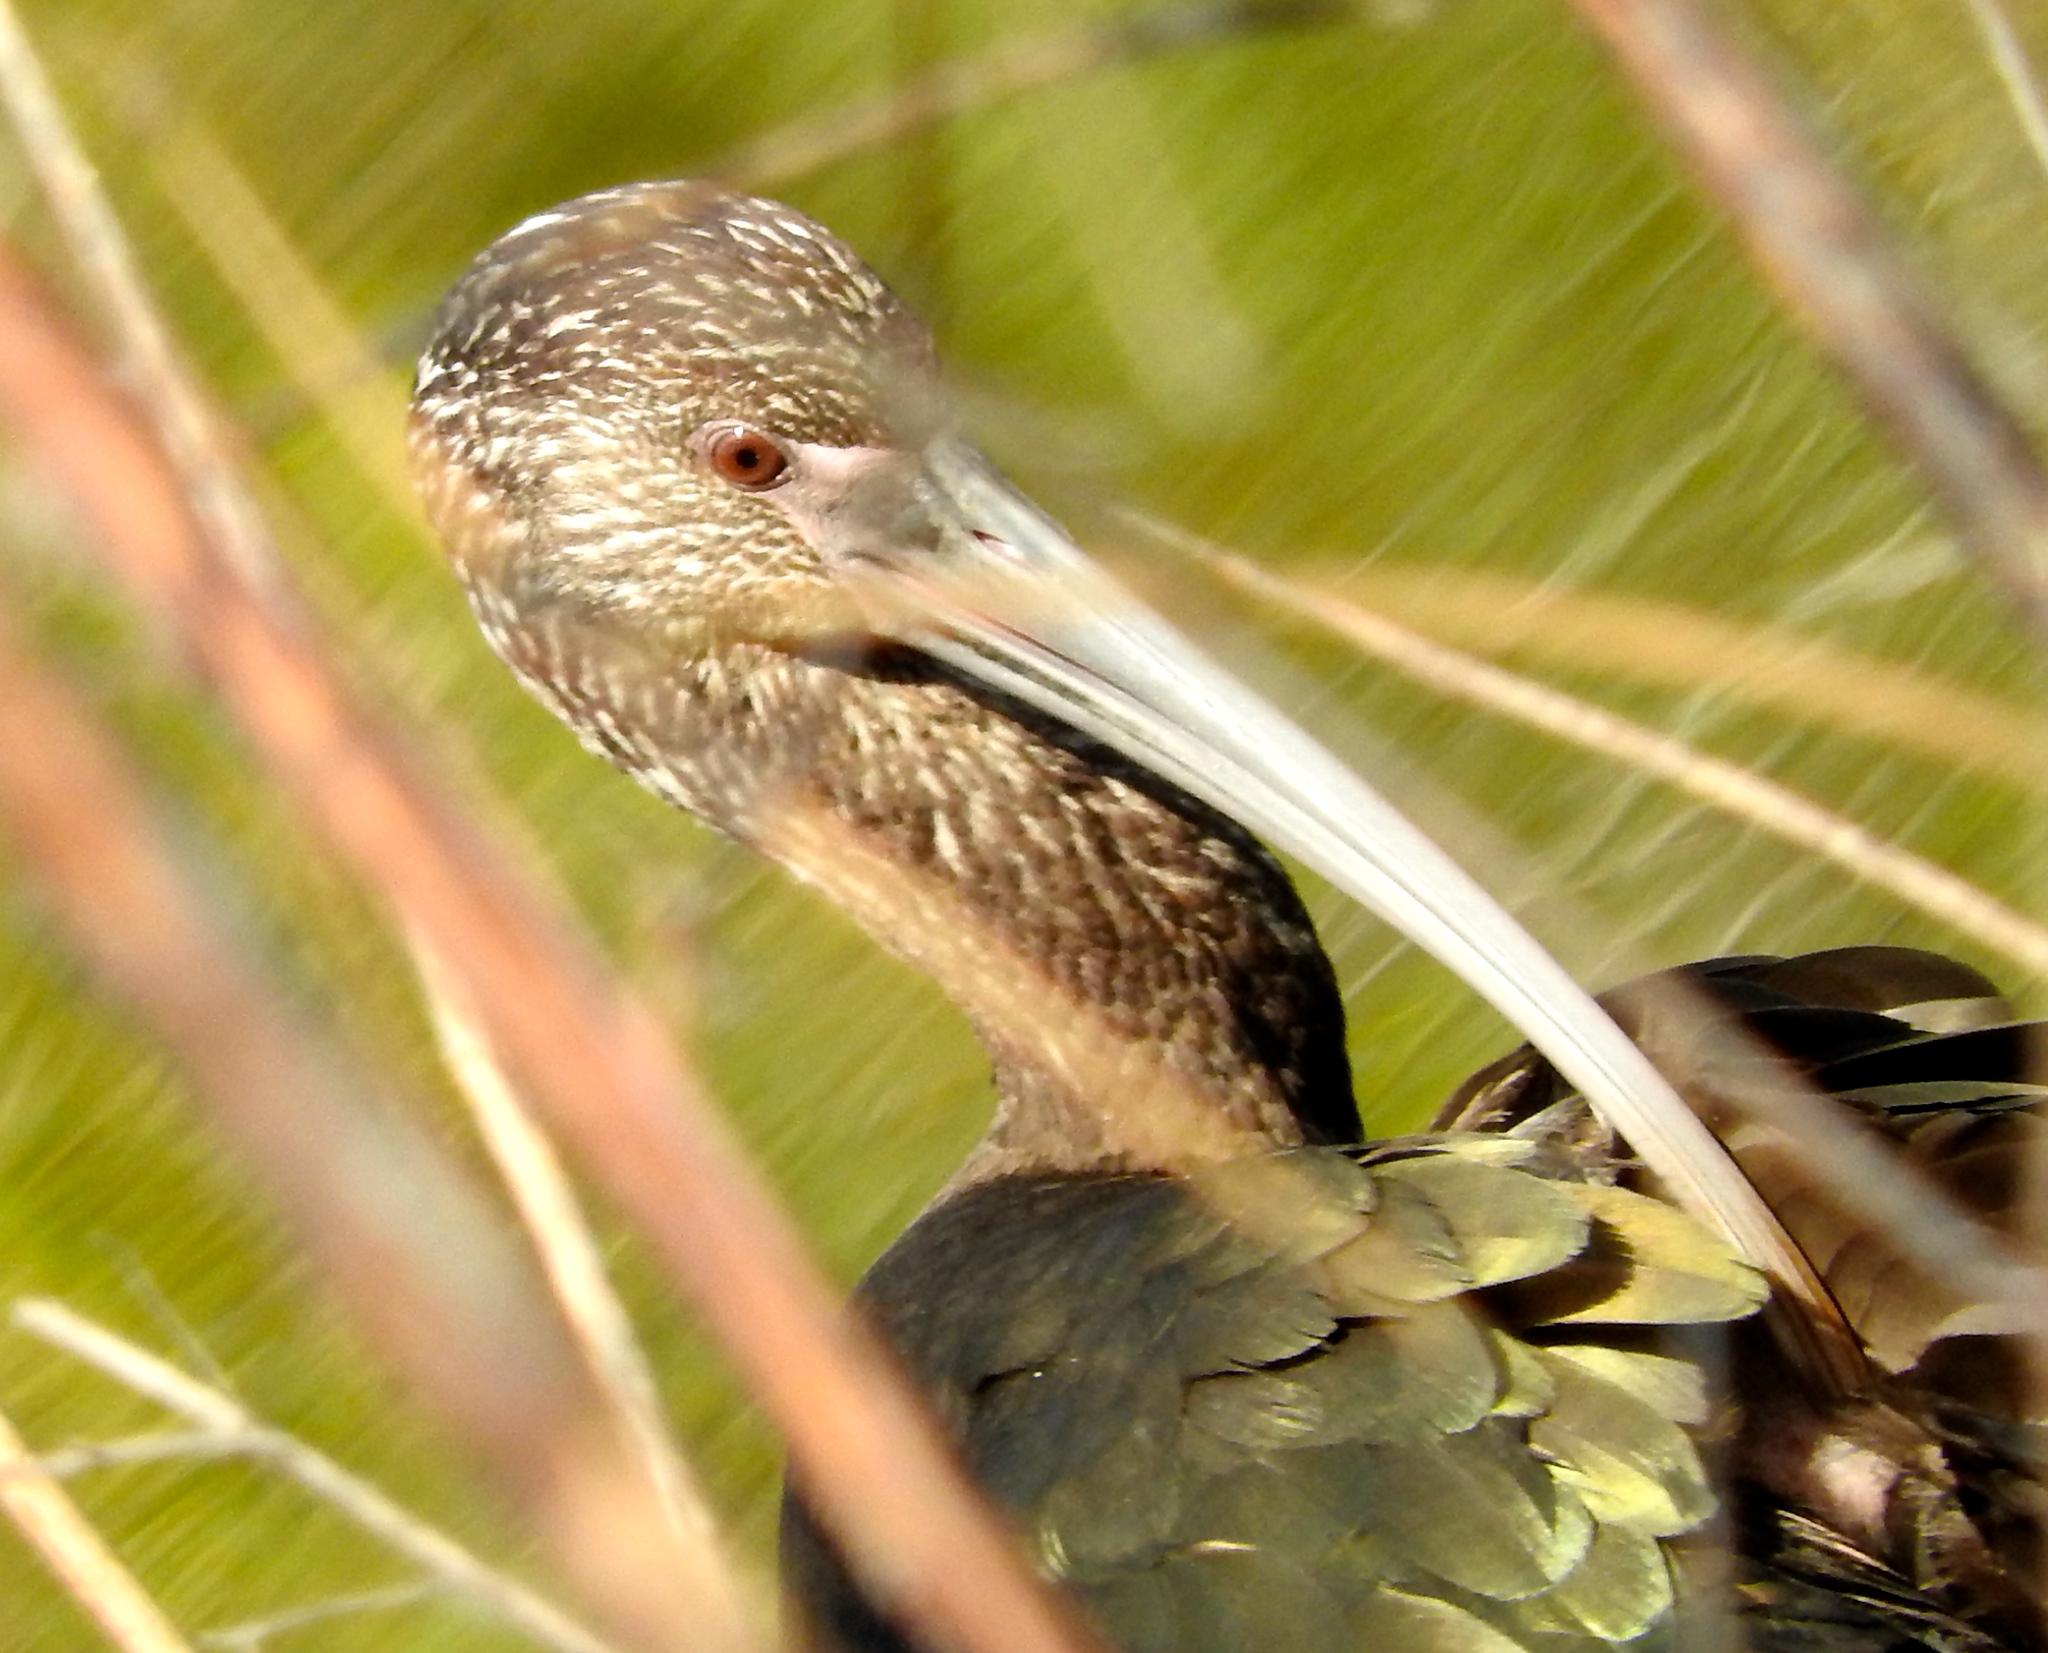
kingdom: Animalia
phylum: Chordata
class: Aves
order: Pelecaniformes
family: Threskiornithidae
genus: Plegadis
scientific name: Plegadis chihi
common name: White-faced ibis
